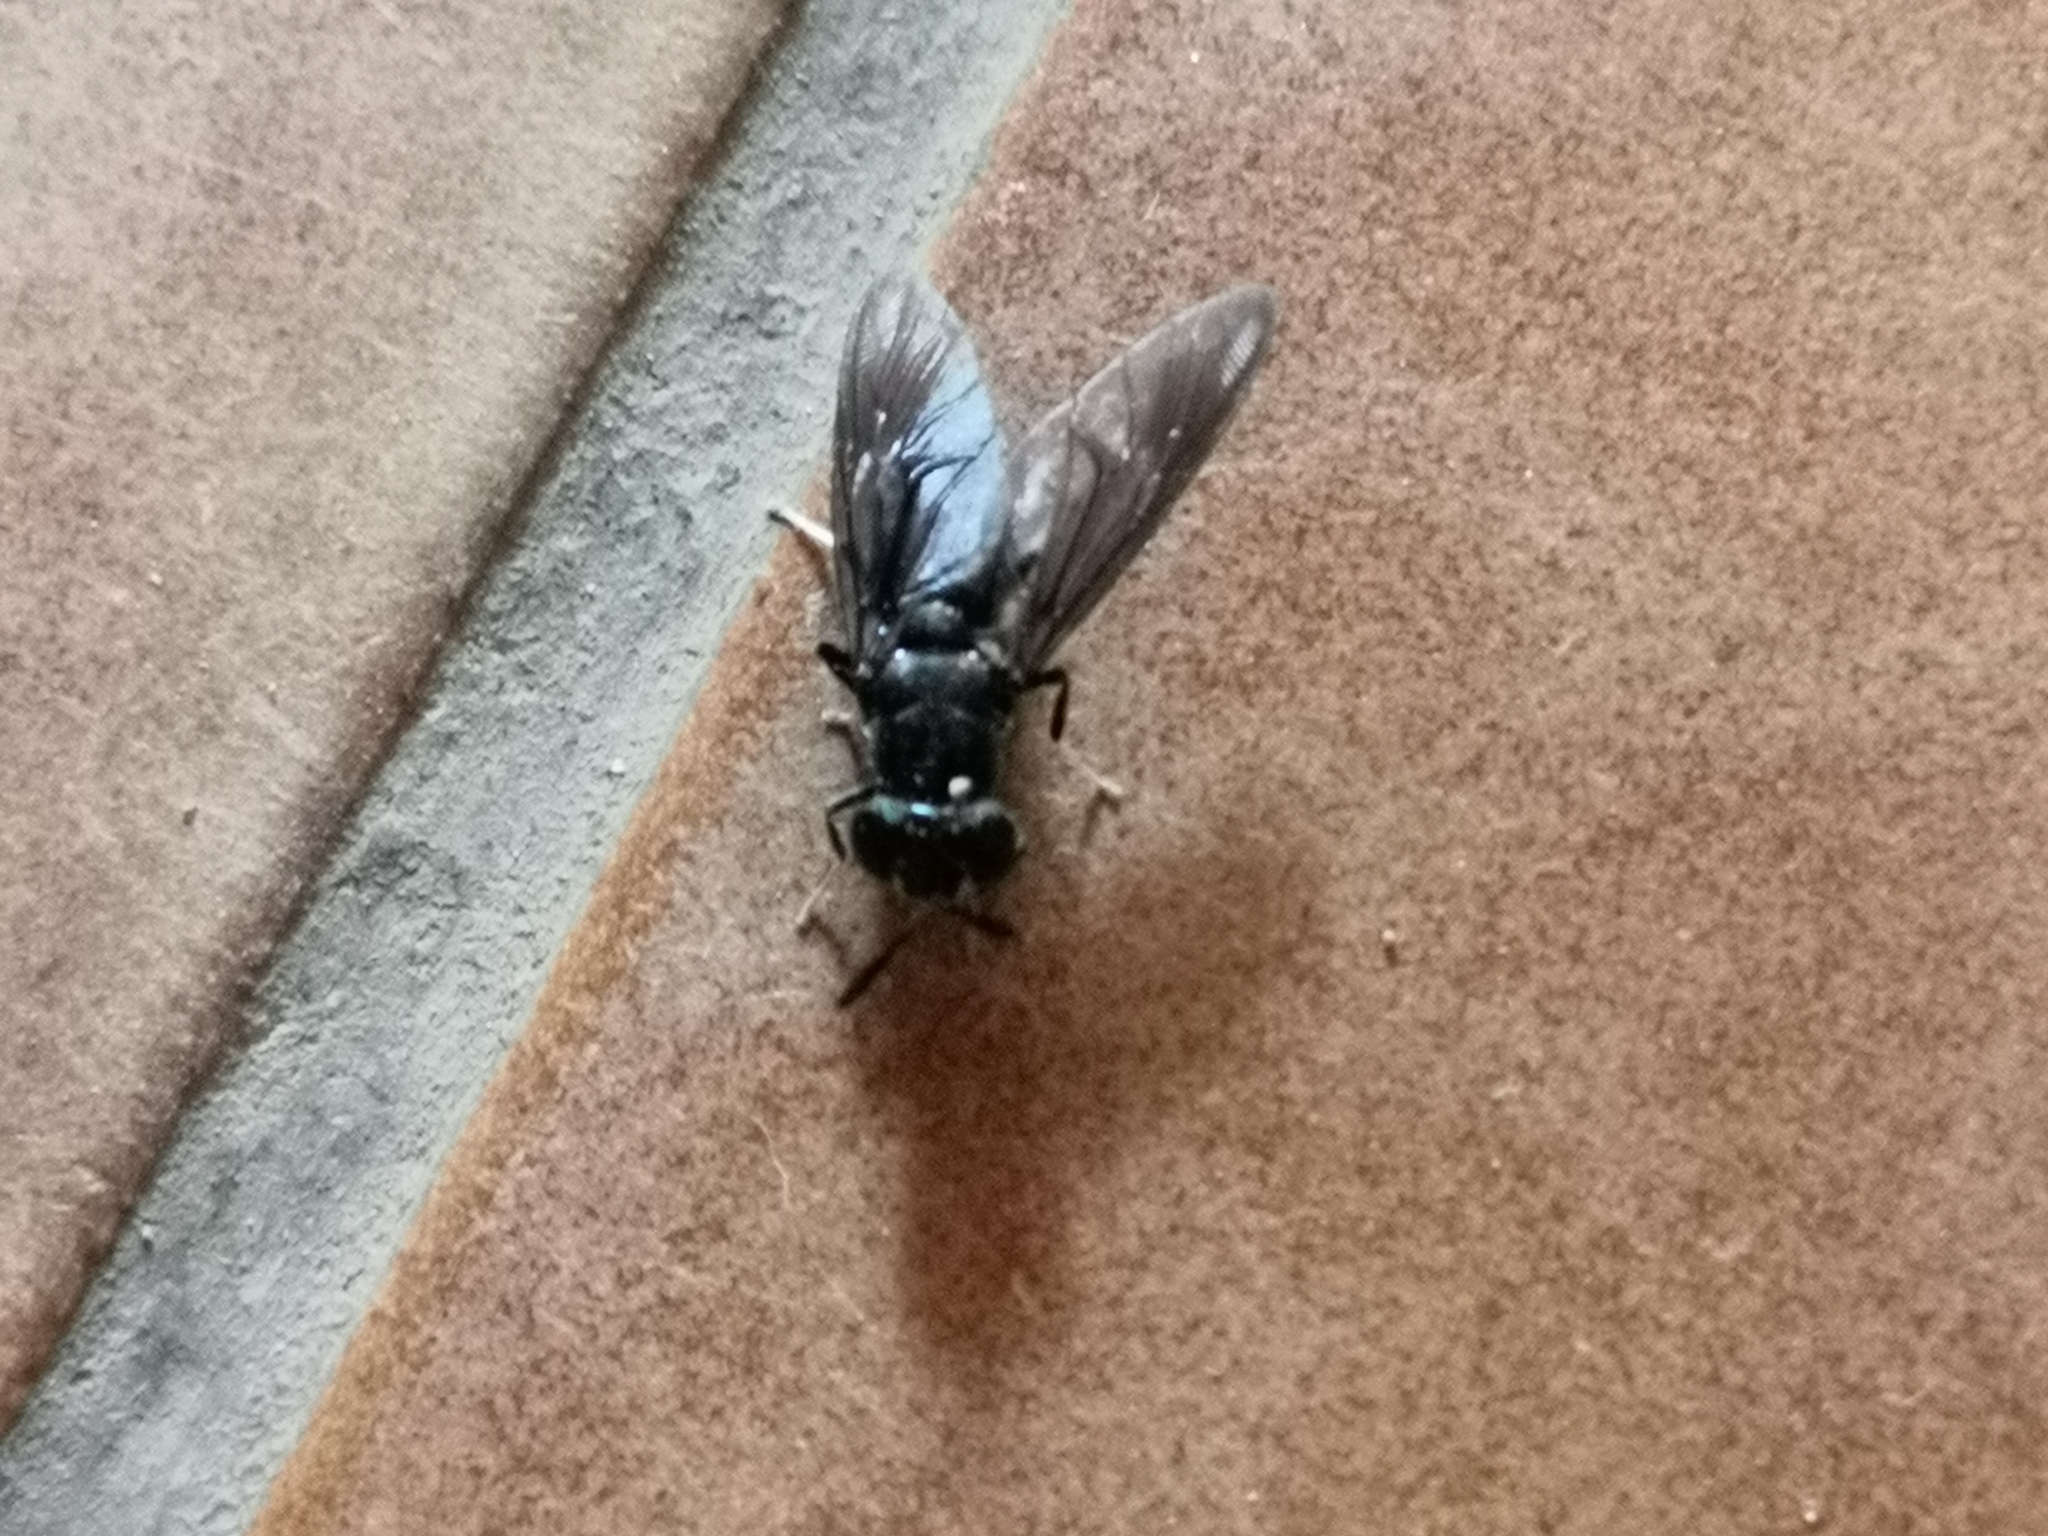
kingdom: Animalia
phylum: Arthropoda
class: Insecta
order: Diptera
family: Stratiomyidae
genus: Hermetia
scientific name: Hermetia illucens
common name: Black soldier fly
